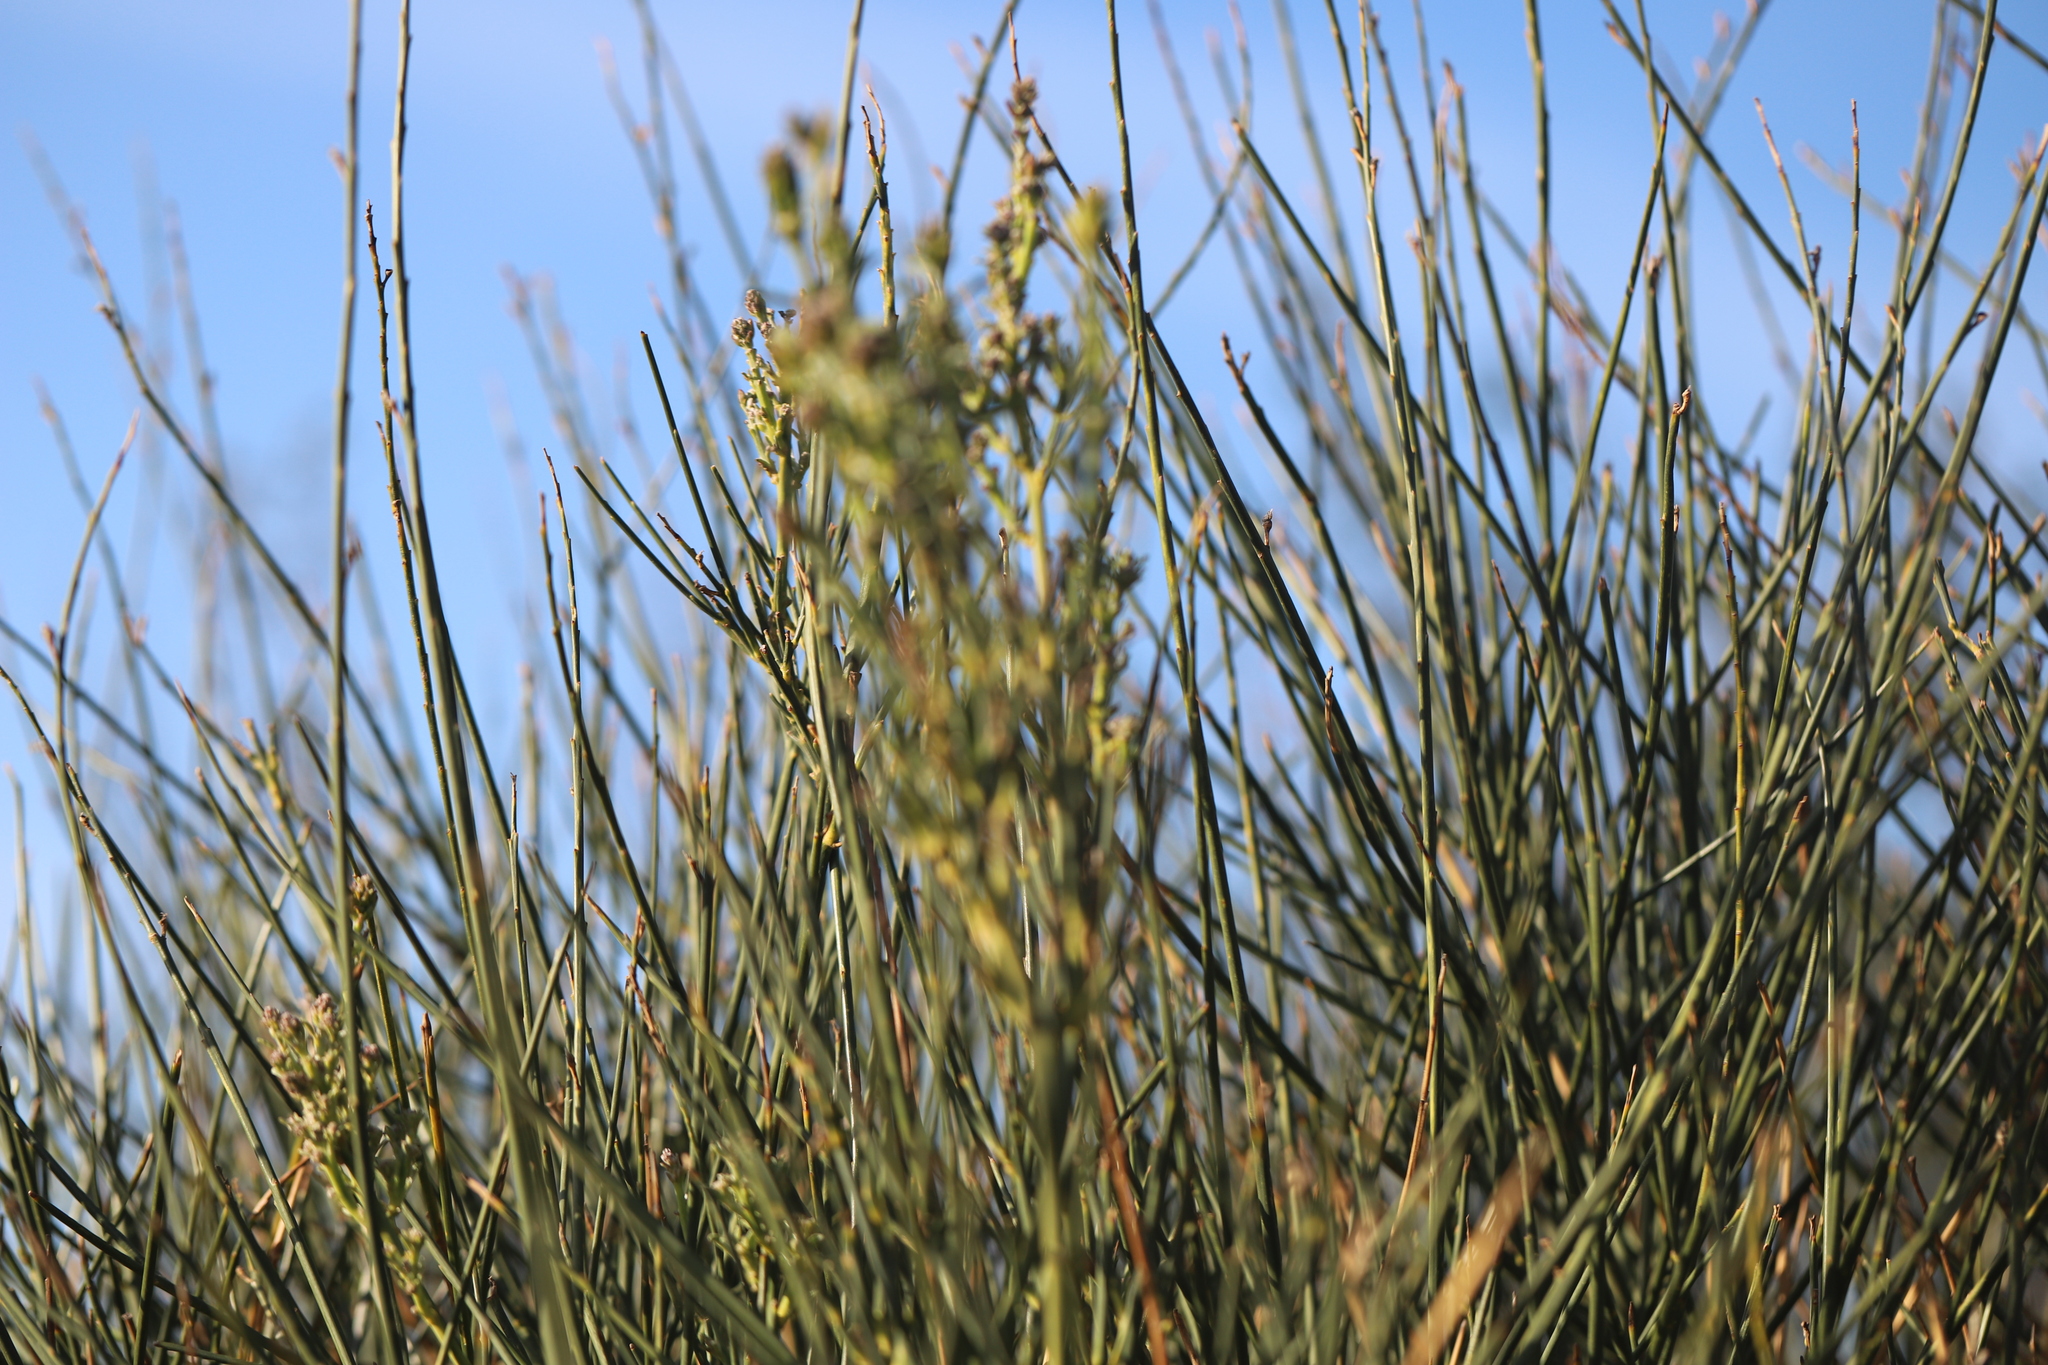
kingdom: Plantae
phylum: Tracheophyta
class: Magnoliopsida
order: Fabales
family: Fabaceae
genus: Spartium
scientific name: Spartium junceum
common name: Spanish broom
